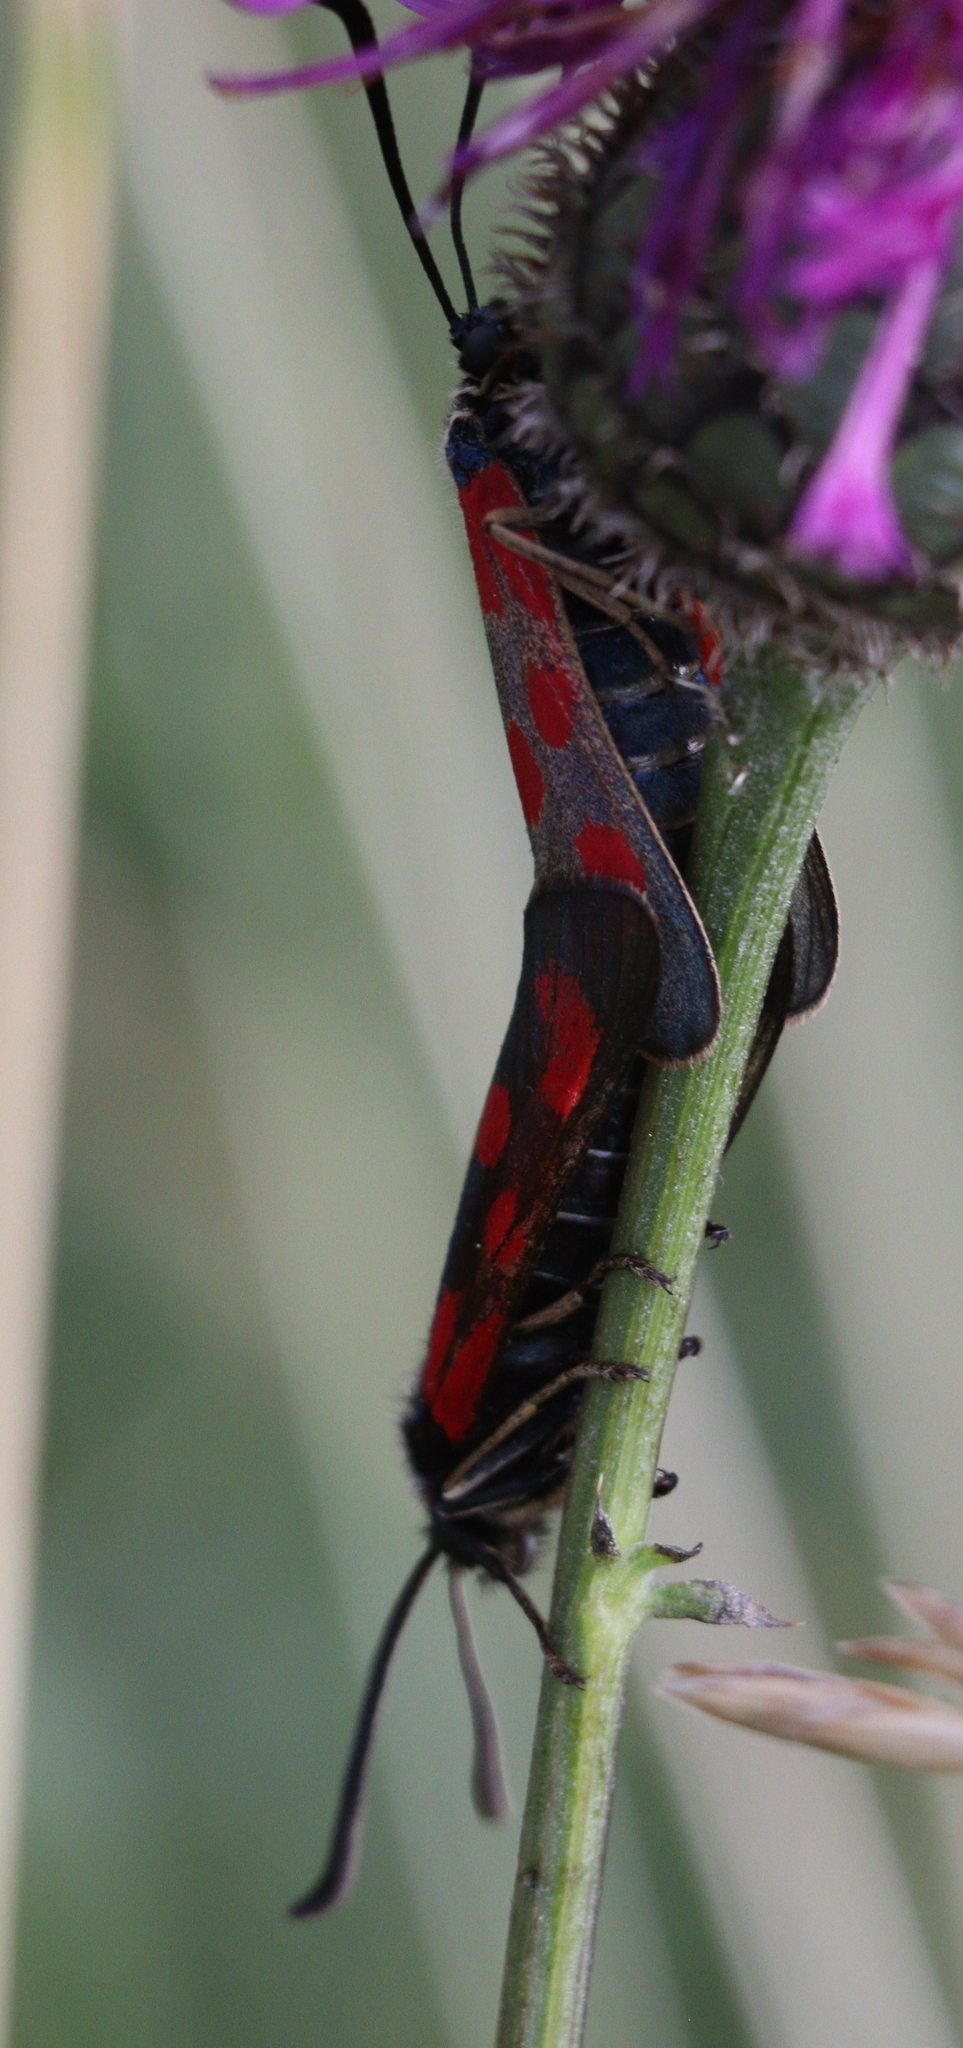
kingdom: Animalia
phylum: Arthropoda
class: Insecta
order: Lepidoptera
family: Zygaenidae
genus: Zygaena
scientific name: Zygaena loti
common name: Slender scotch burnet
